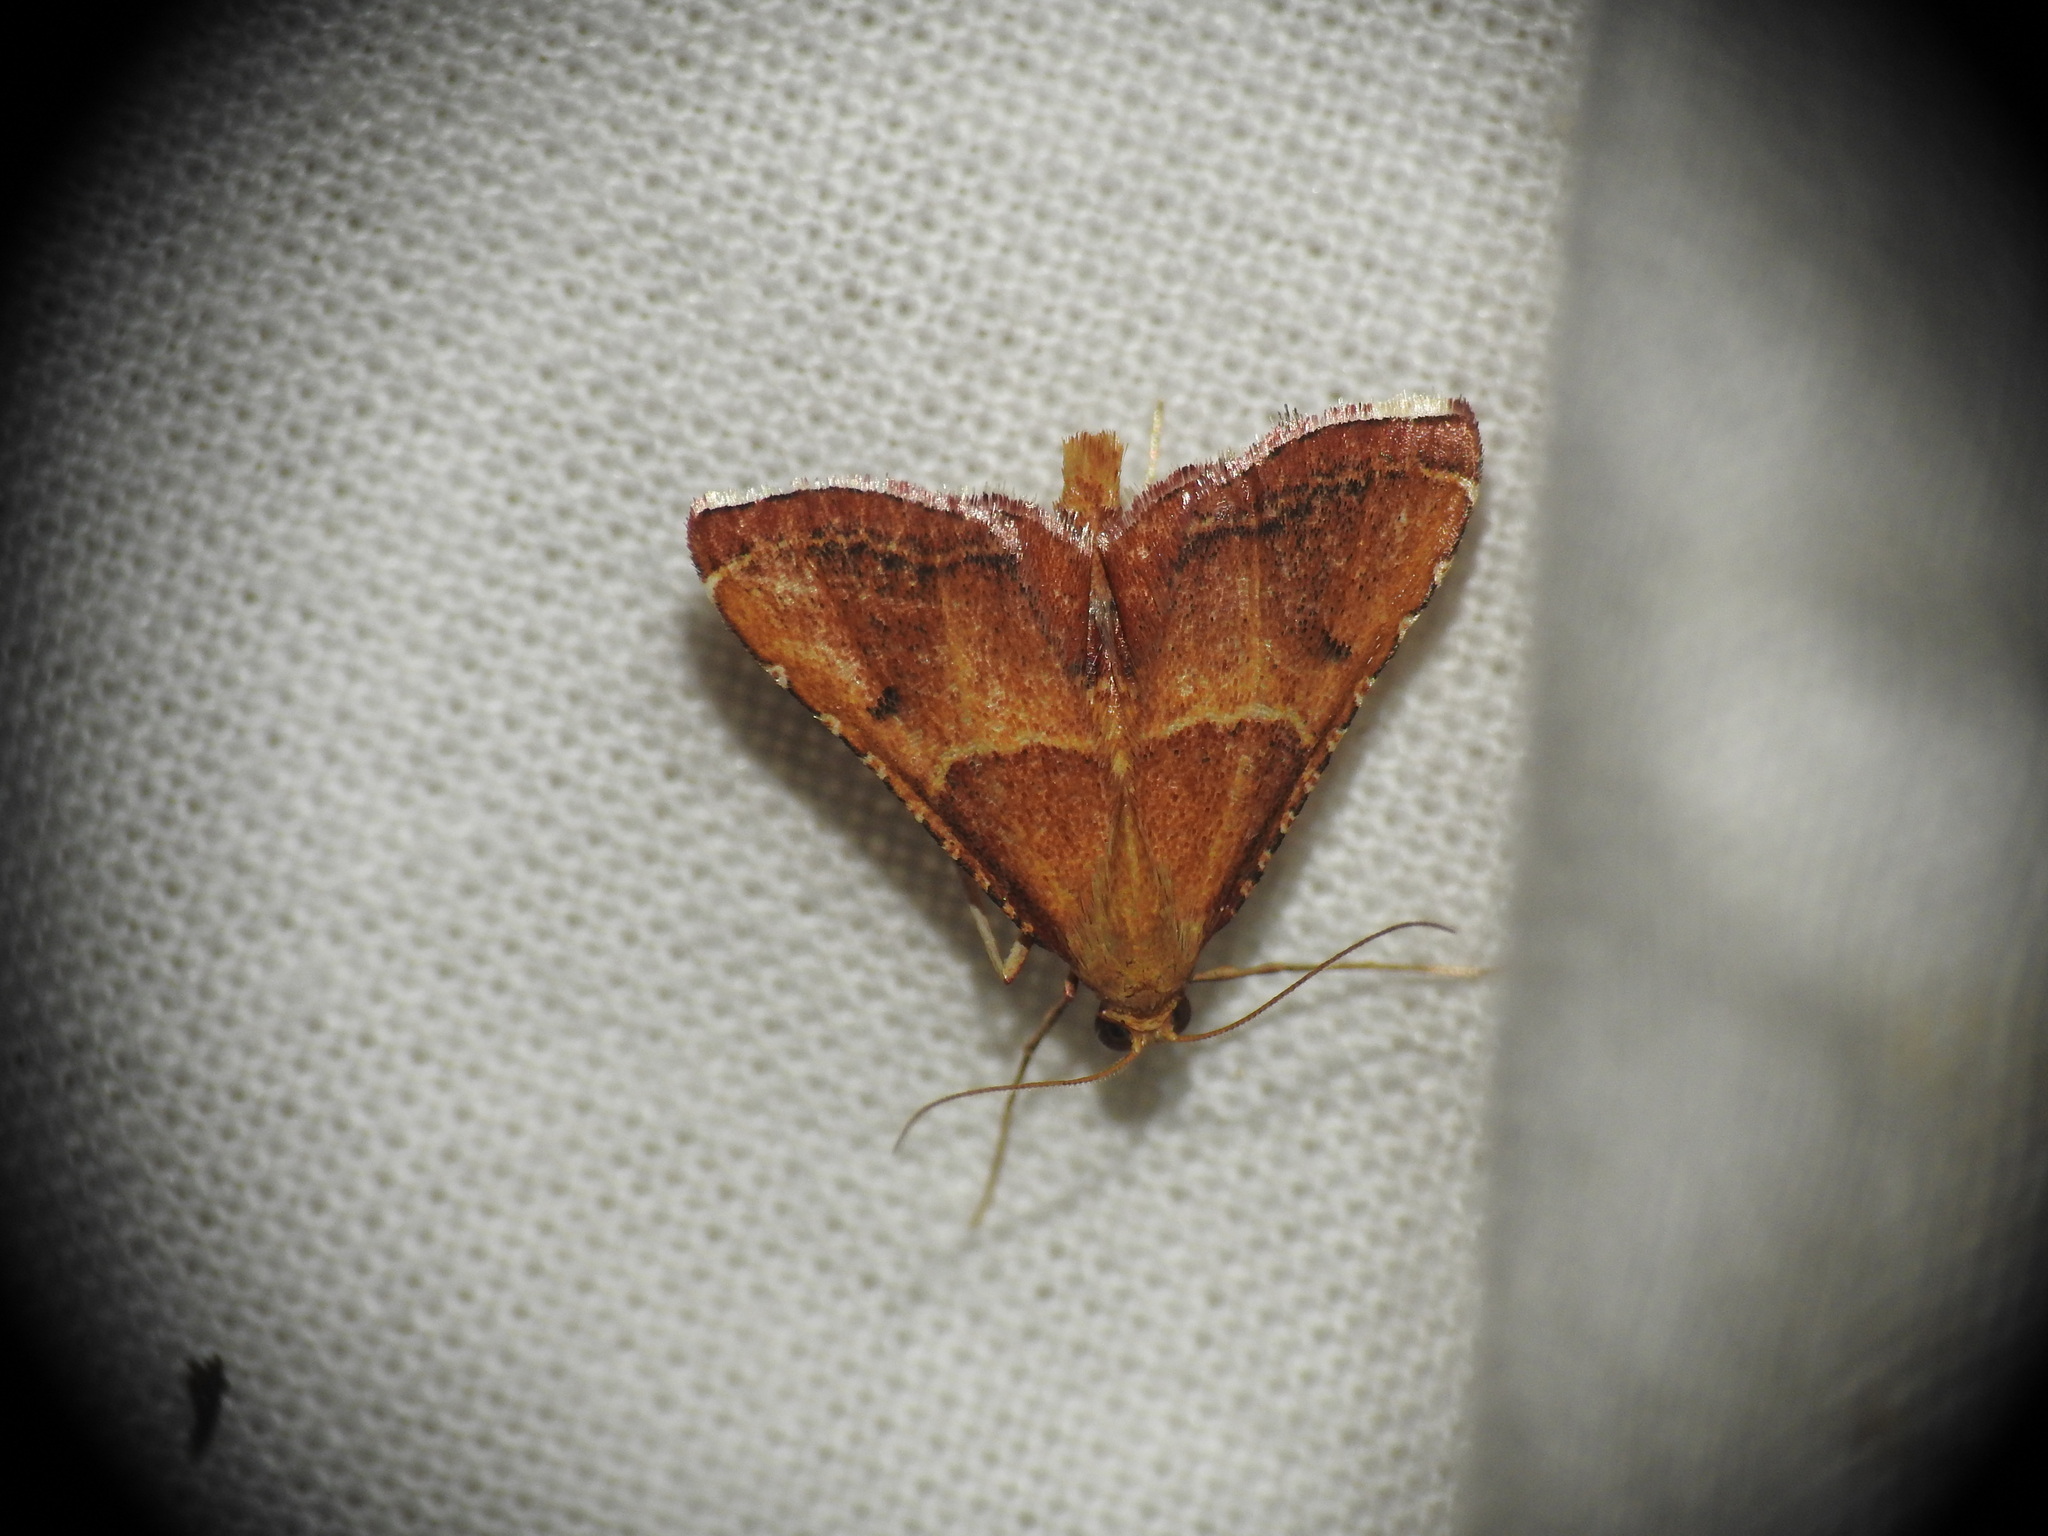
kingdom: Animalia
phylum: Arthropoda
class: Insecta
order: Lepidoptera
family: Pyralidae
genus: Endotricha
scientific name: Endotricha flammealis
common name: Rosy tabby
